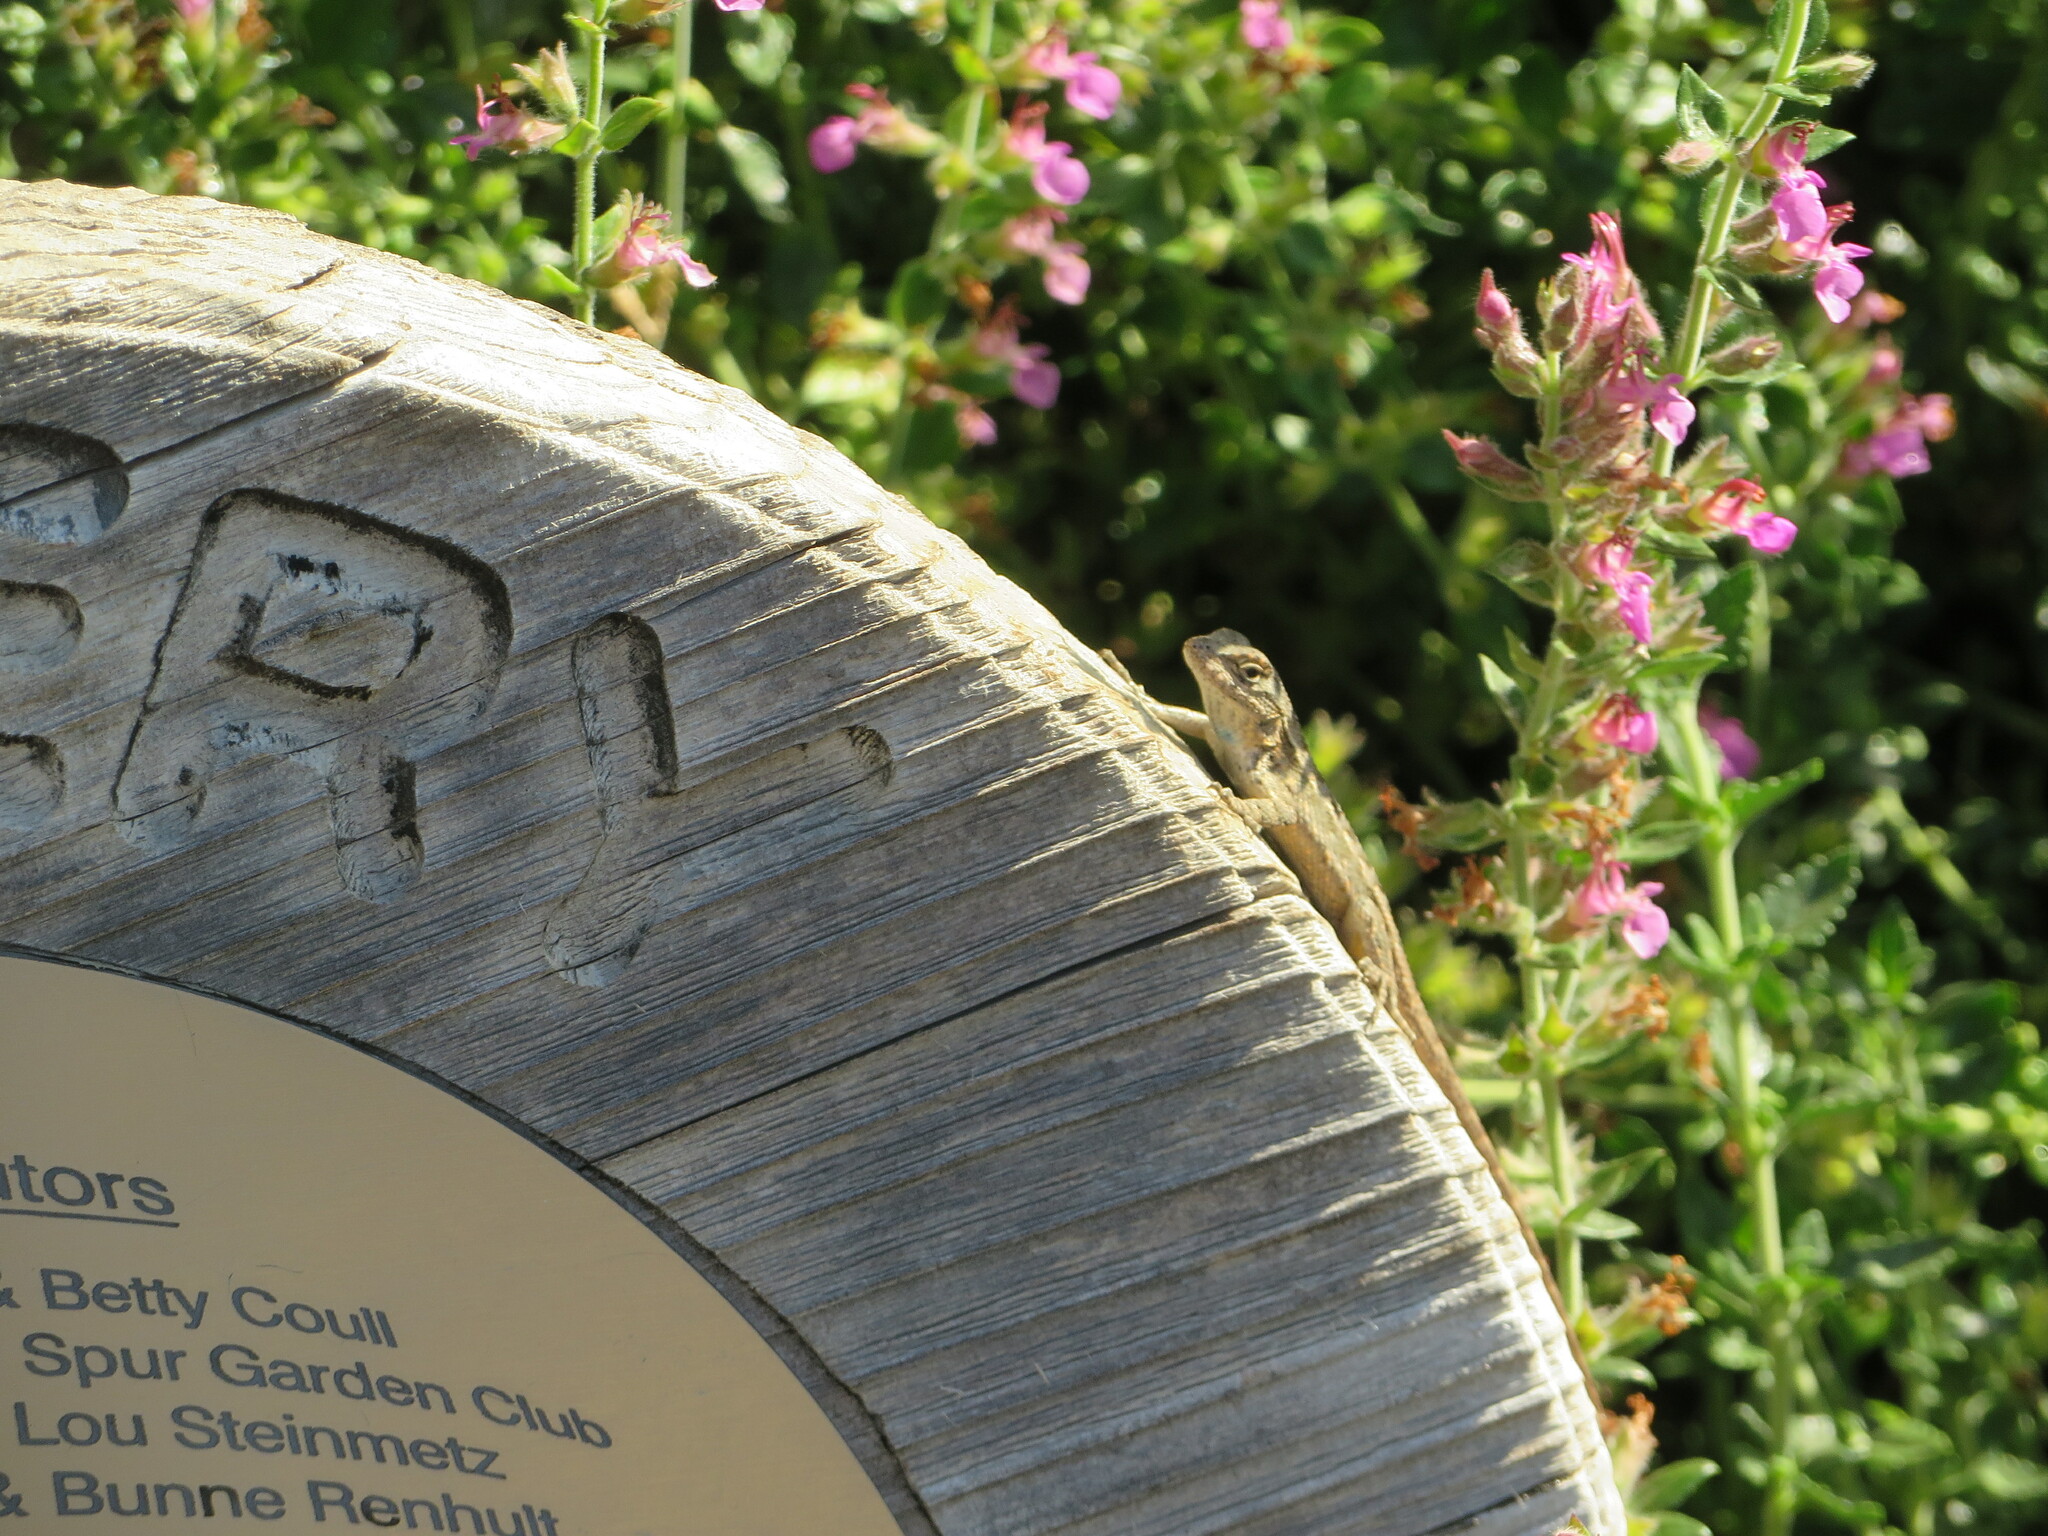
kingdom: Animalia
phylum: Chordata
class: Squamata
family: Phrynosomatidae
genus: Sceloporus
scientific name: Sceloporus occidentalis
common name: Western fence lizard
